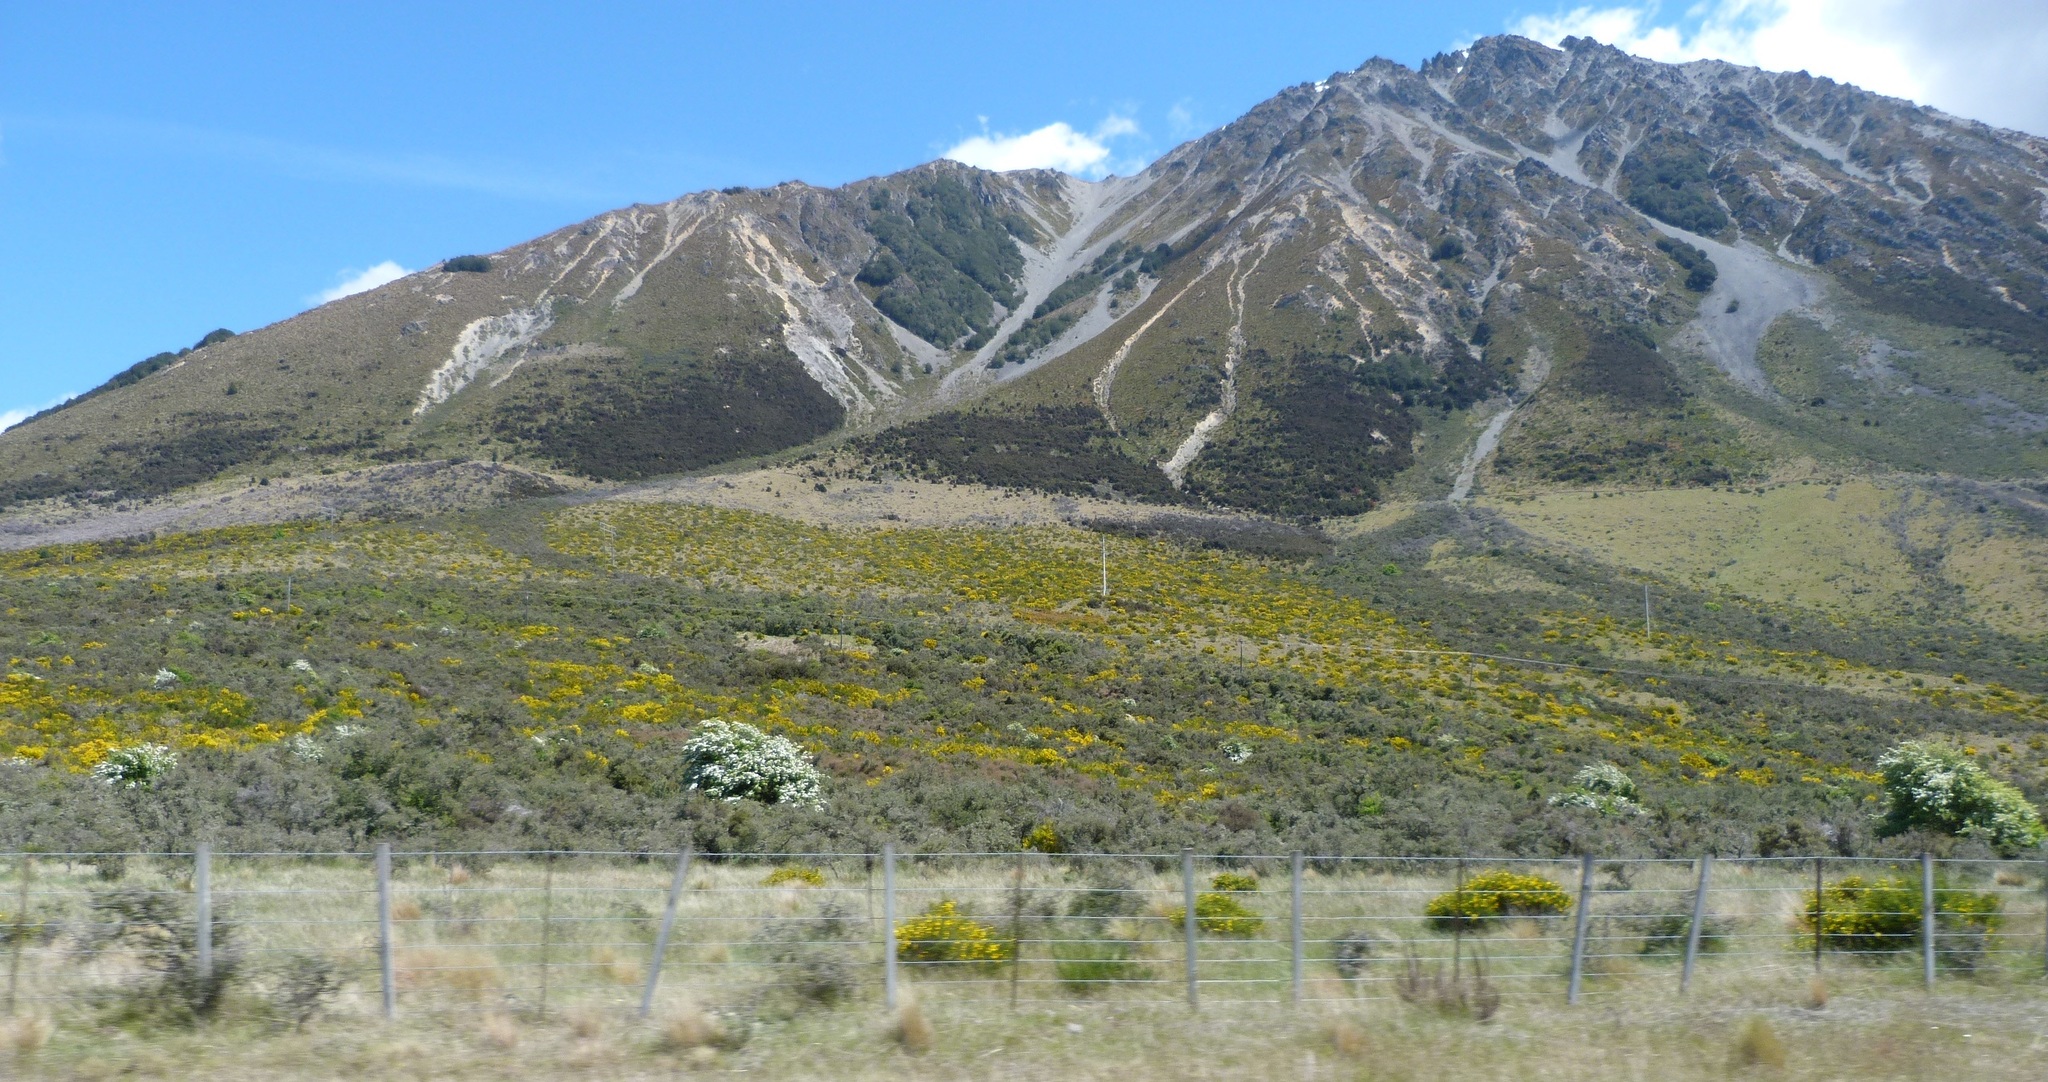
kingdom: Plantae
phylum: Tracheophyta
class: Magnoliopsida
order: Fabales
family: Fabaceae
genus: Cytisus
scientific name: Cytisus scoparius
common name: Scotch broom
